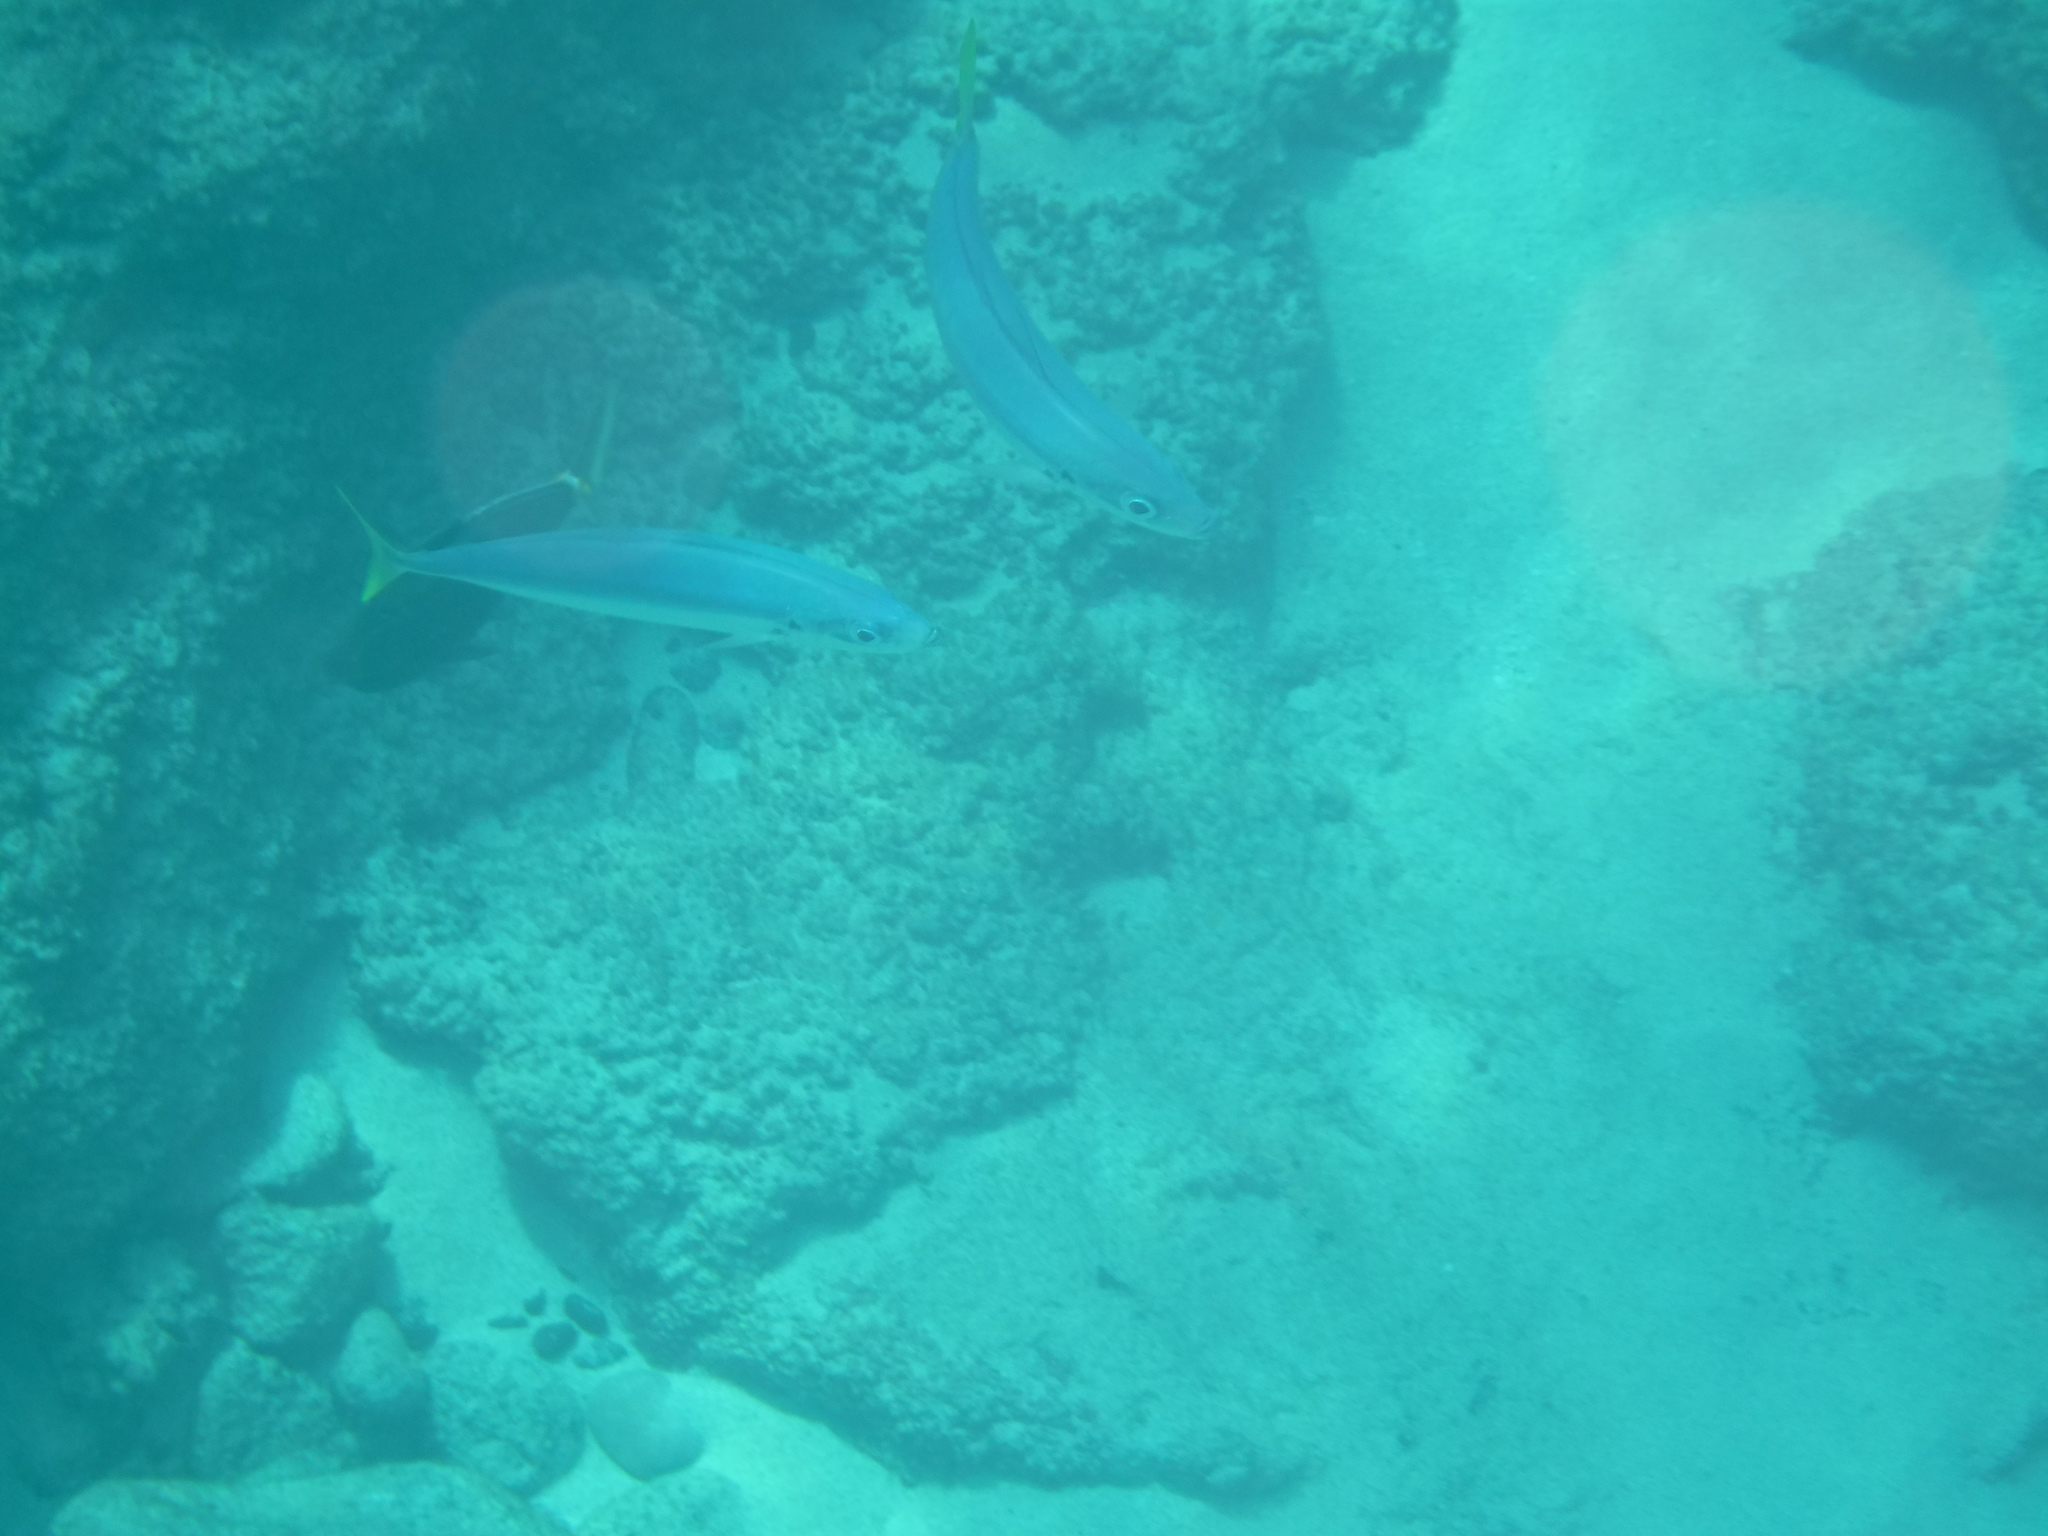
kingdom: Animalia
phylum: Chordata
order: Perciformes
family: Carangidae
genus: Decapterus
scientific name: Decapterus macarellus
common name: Mackerel scad
